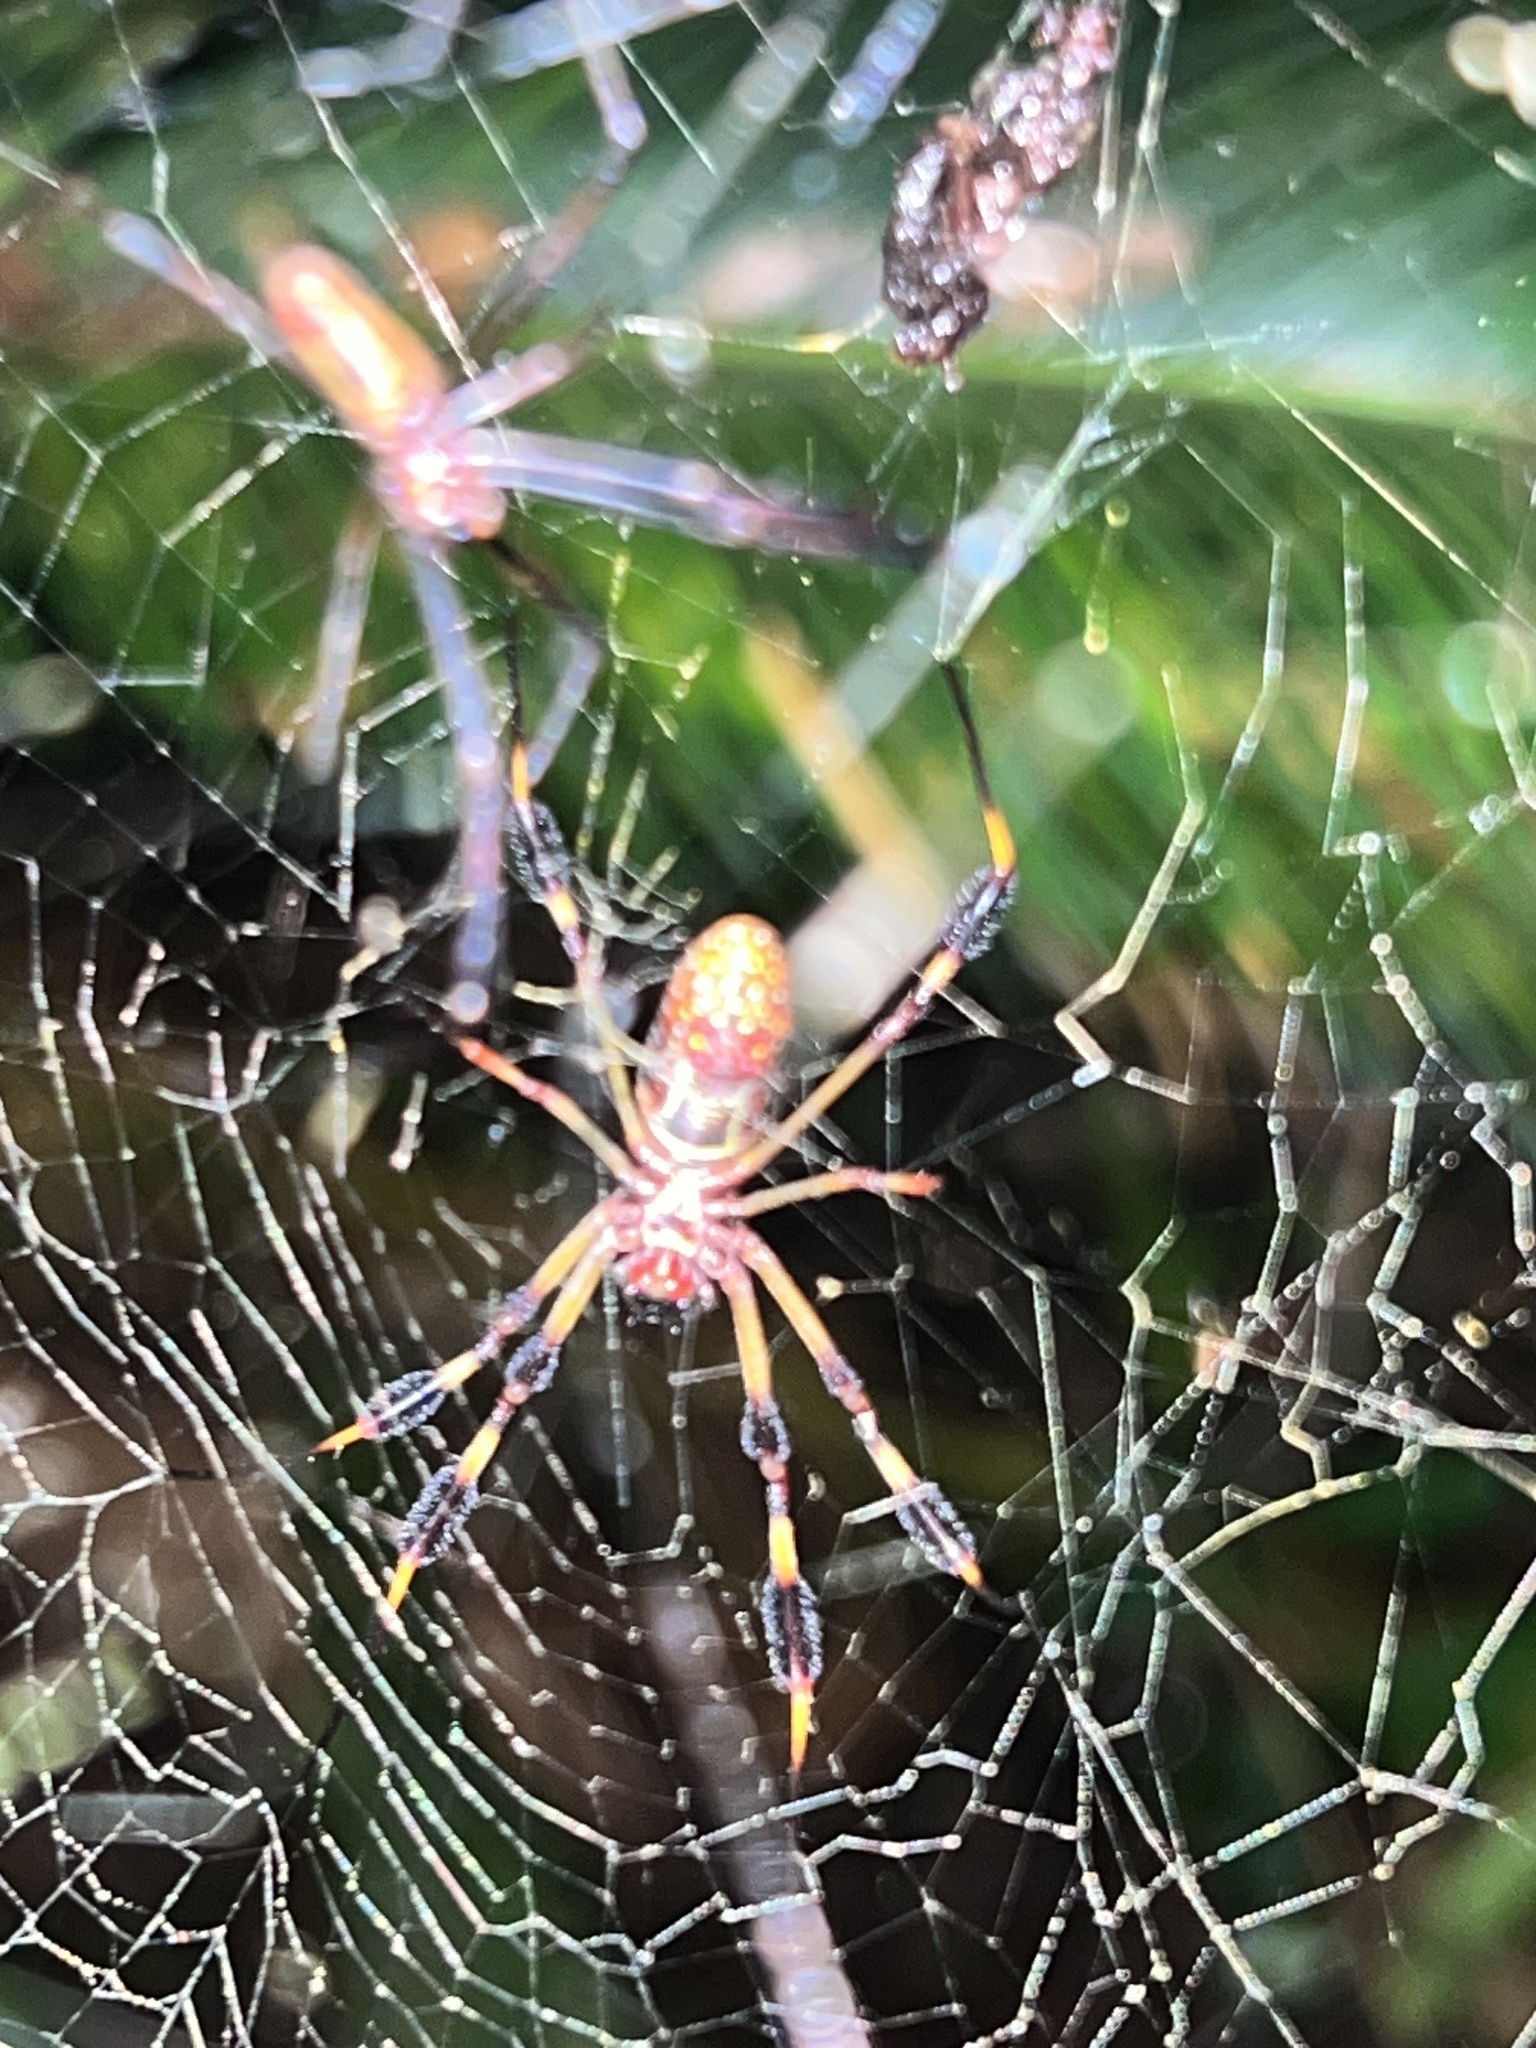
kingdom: Animalia
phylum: Arthropoda
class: Arachnida
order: Araneae
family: Araneidae
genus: Trichonephila
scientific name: Trichonephila clavipes
